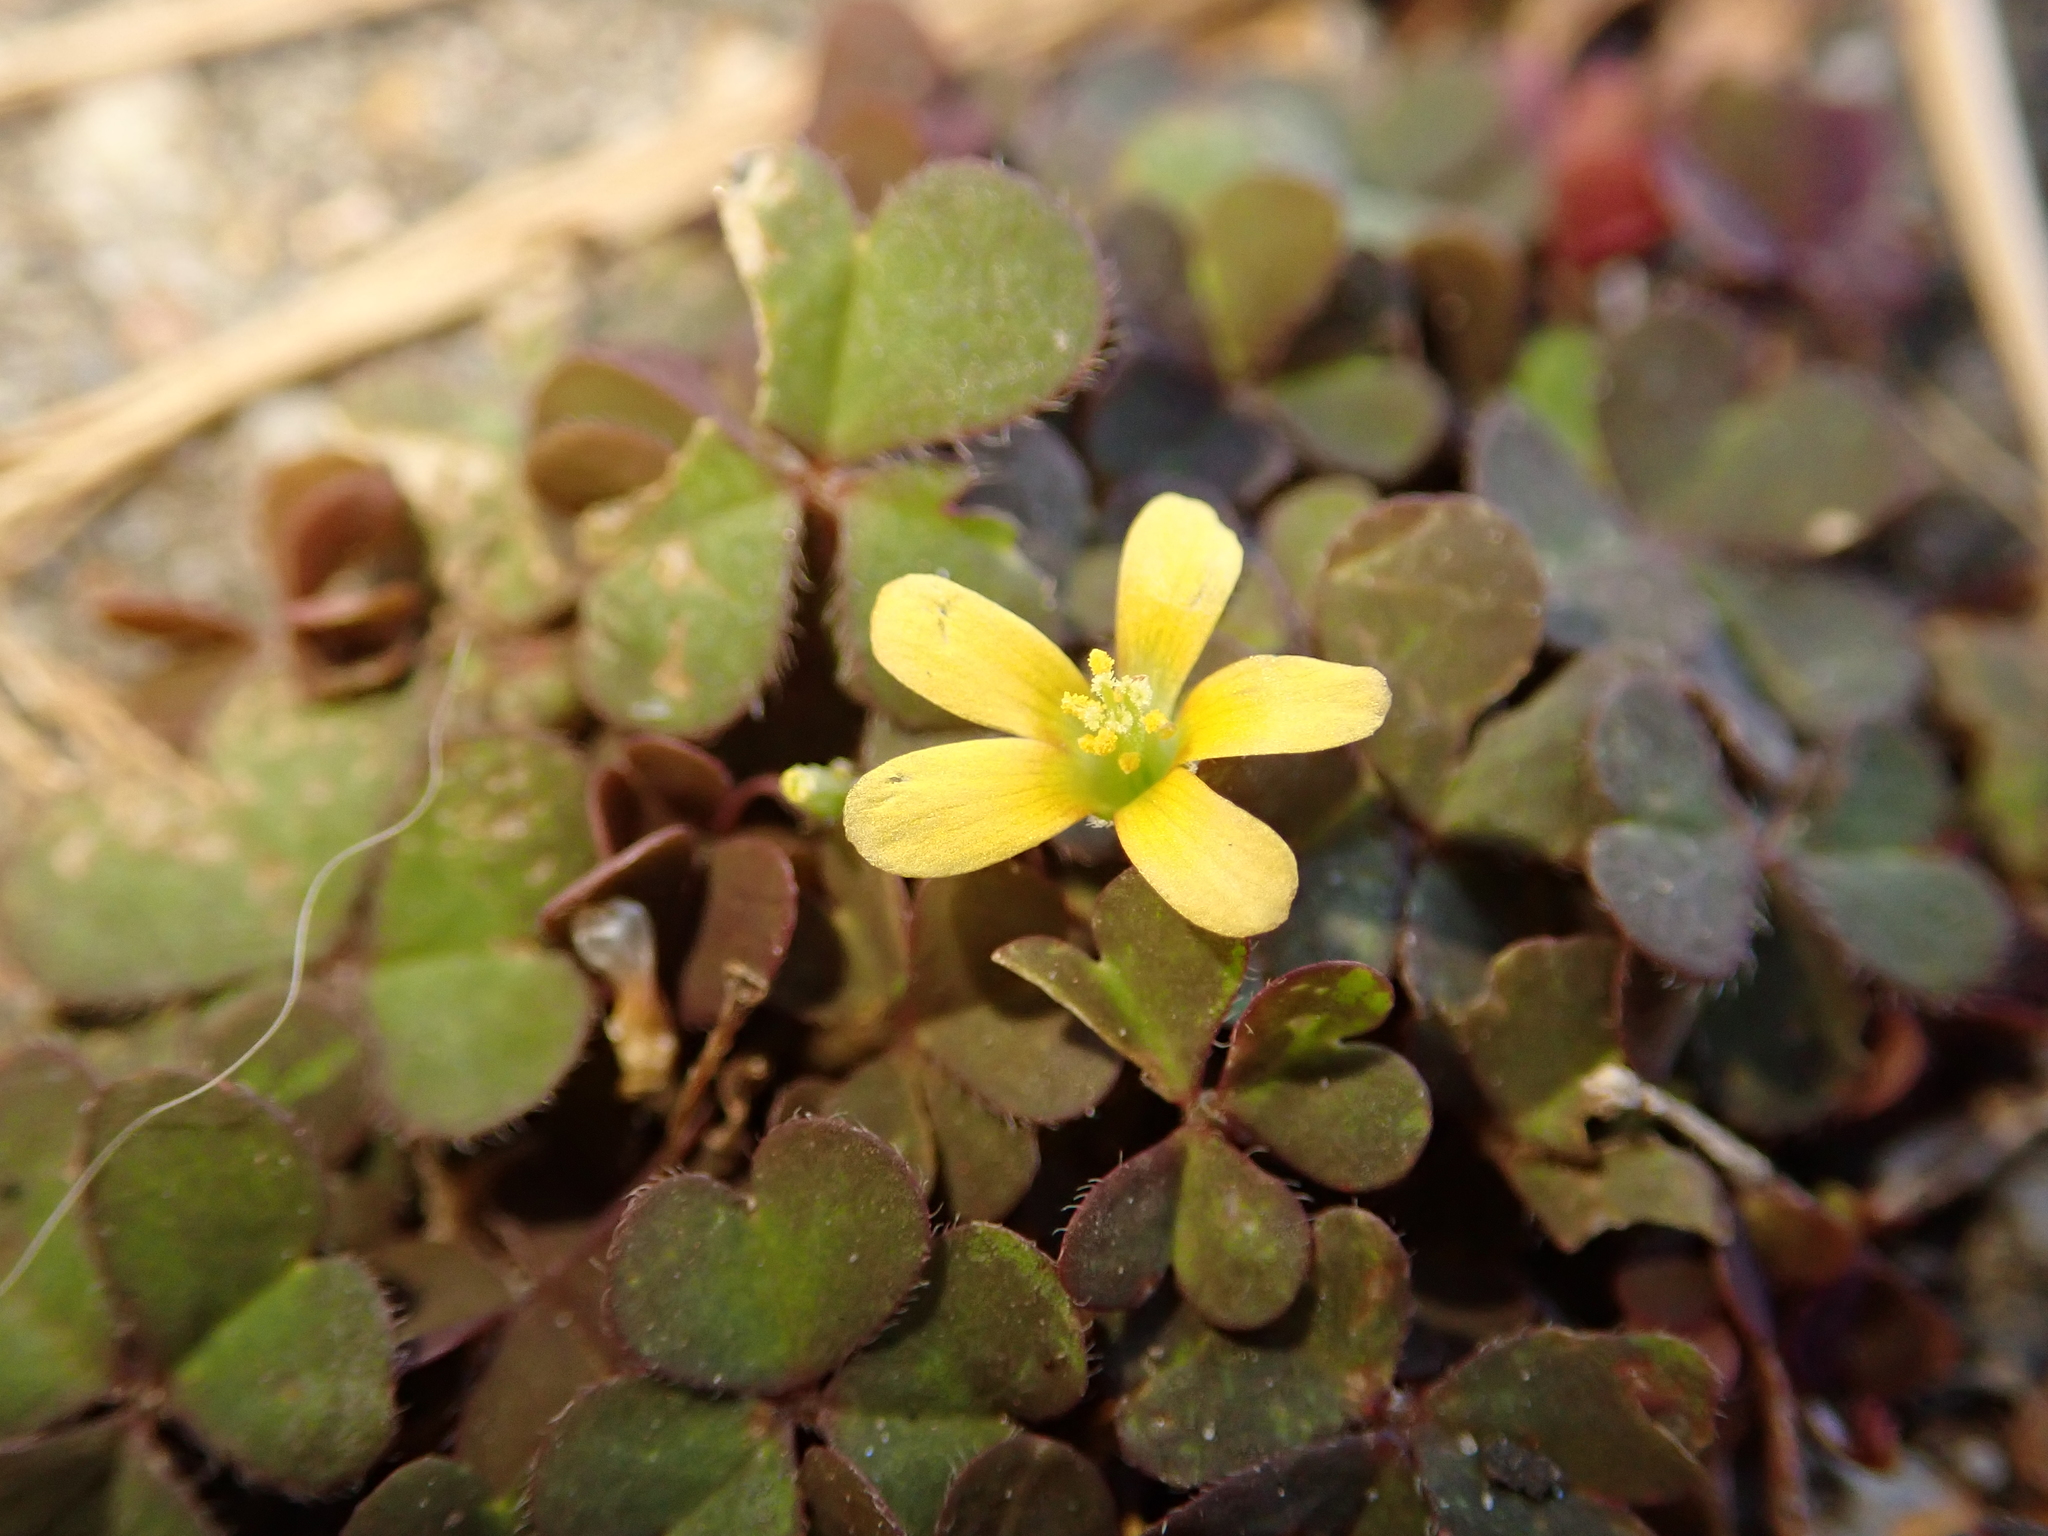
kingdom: Plantae
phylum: Tracheophyta
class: Magnoliopsida
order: Oxalidales
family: Oxalidaceae
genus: Oxalis
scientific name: Oxalis corniculata
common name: Procumbent yellow-sorrel
